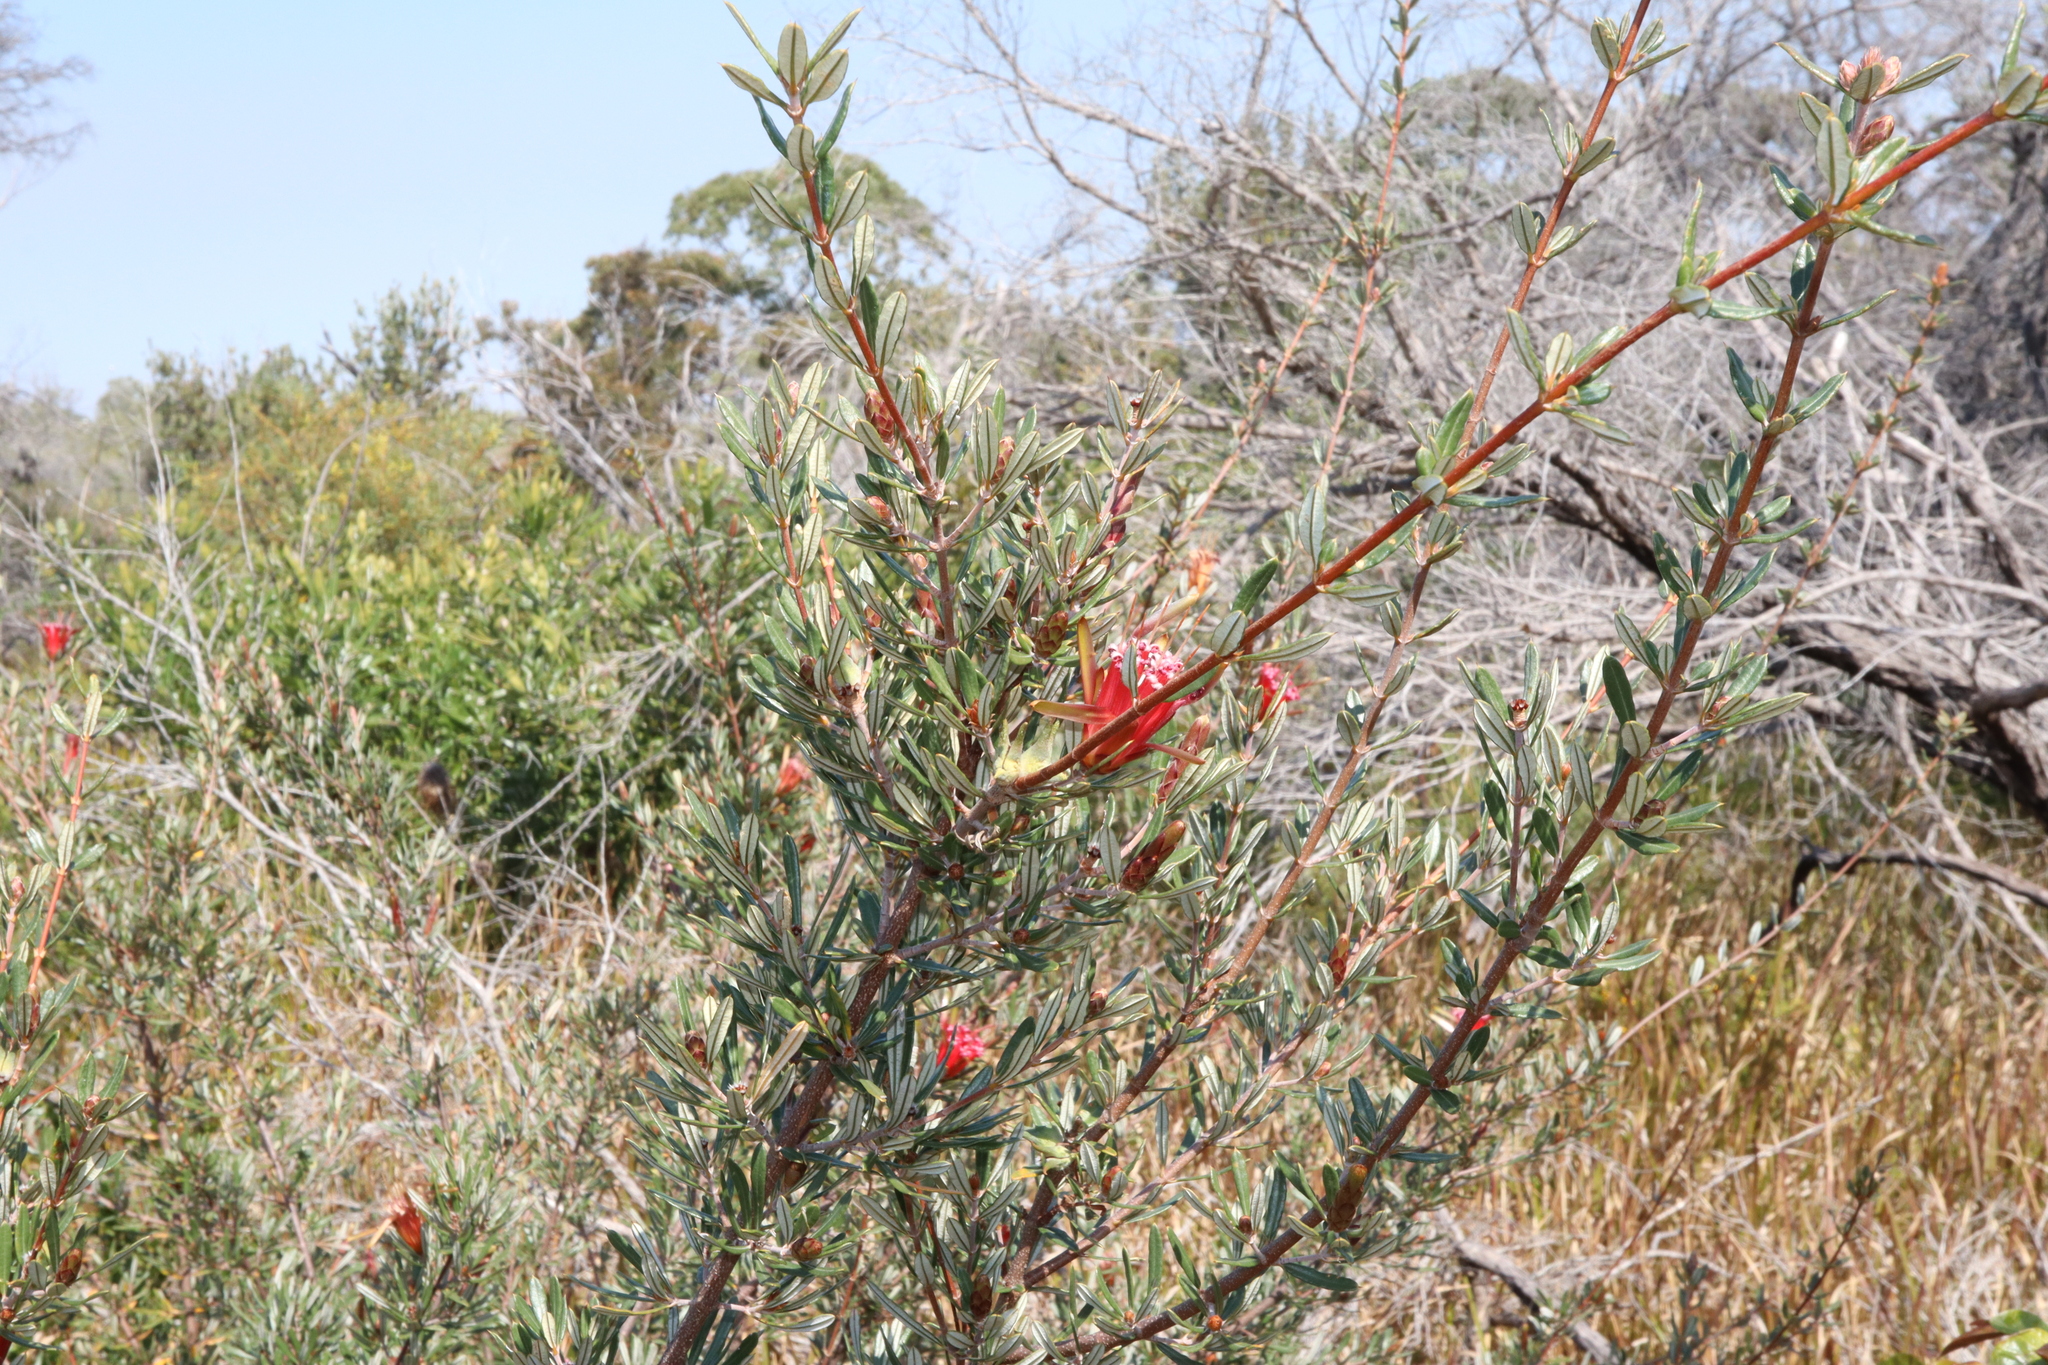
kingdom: Plantae
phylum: Tracheophyta
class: Magnoliopsida
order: Proteales
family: Proteaceae
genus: Lambertia
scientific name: Lambertia formosa
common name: Mountain-devil
